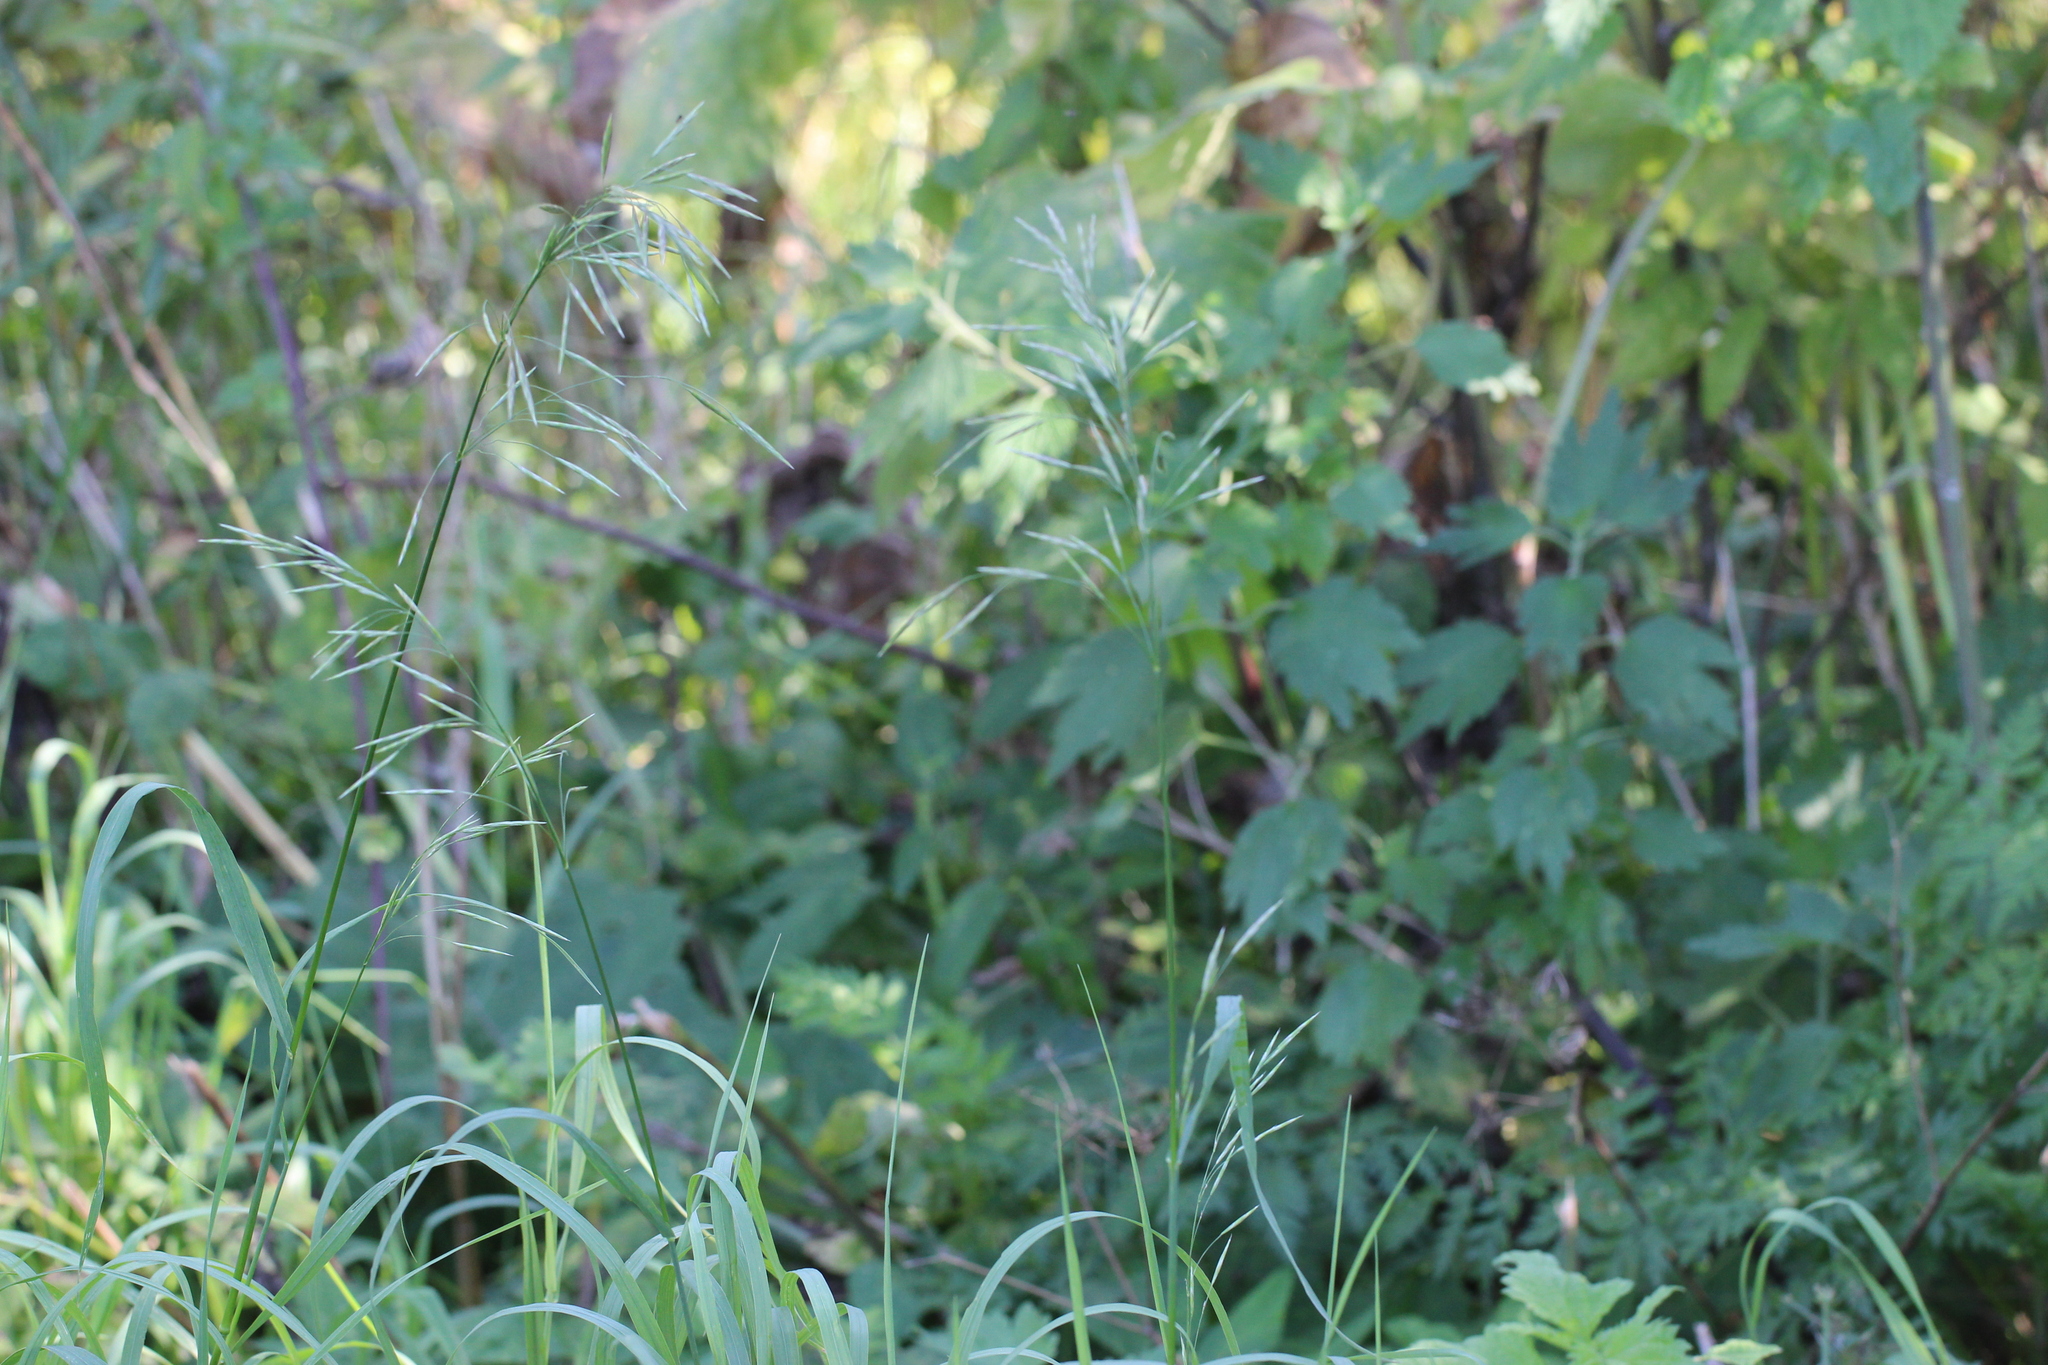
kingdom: Plantae
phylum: Tracheophyta
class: Liliopsida
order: Poales
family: Poaceae
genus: Bromus
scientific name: Bromus inermis
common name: Smooth brome
